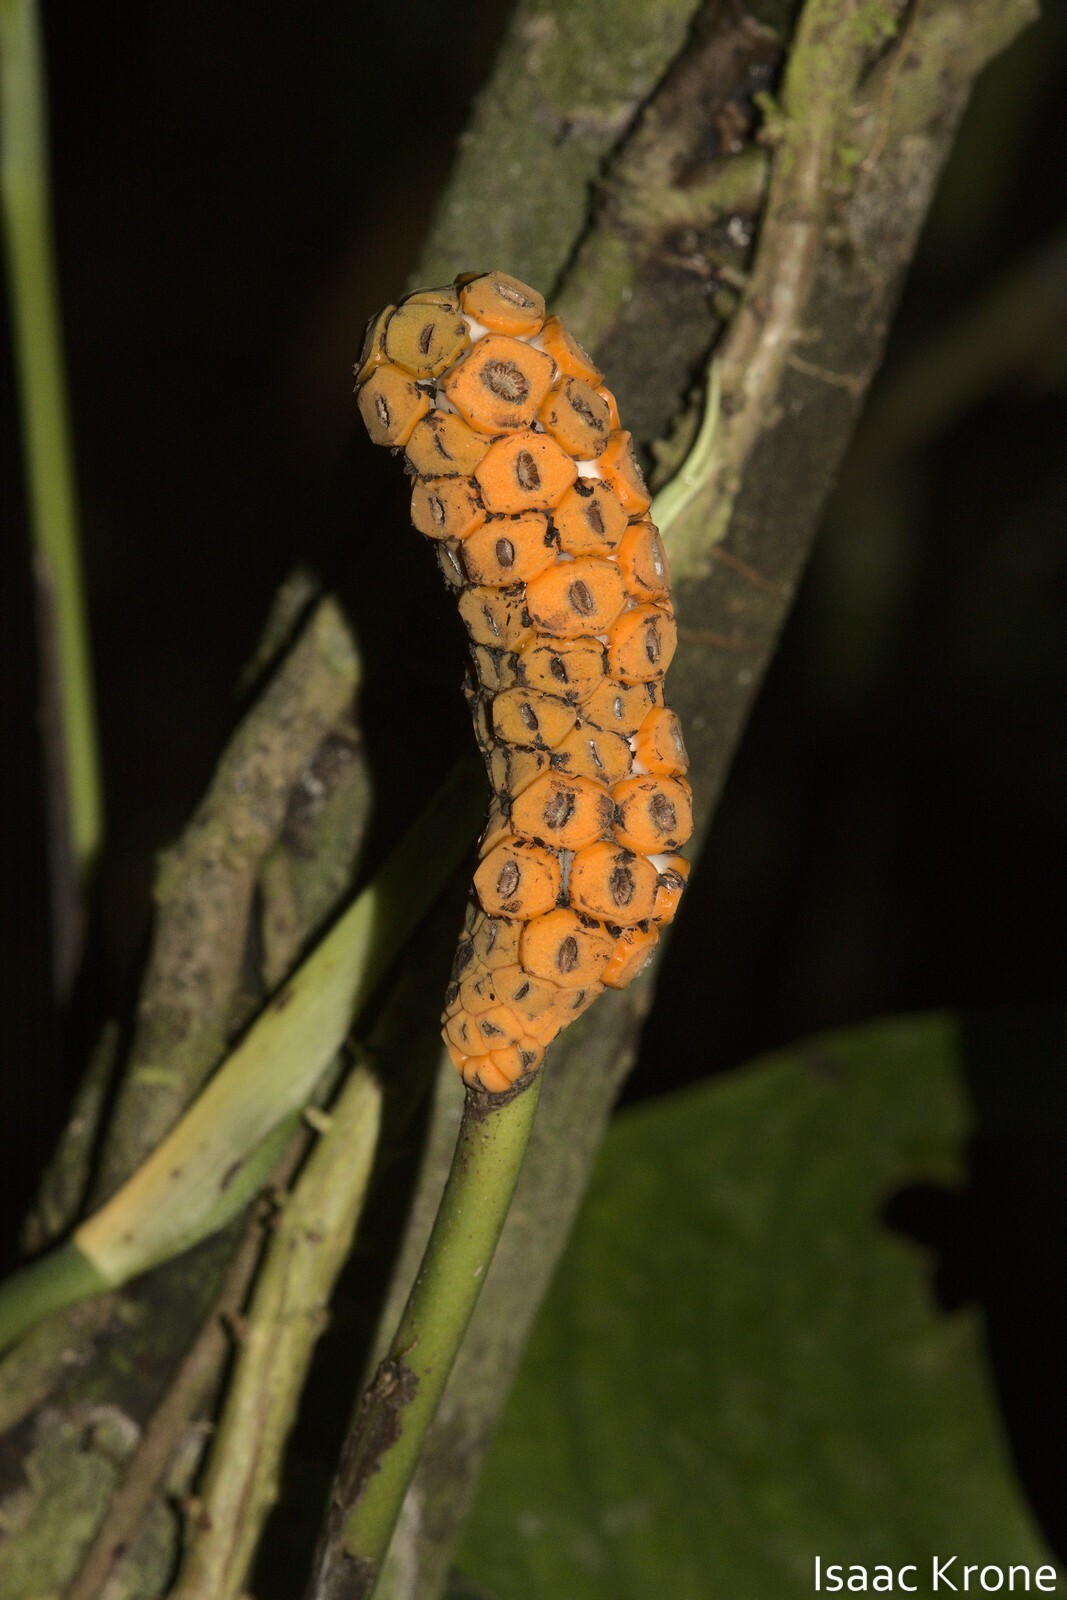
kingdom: Plantae
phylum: Tracheophyta
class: Liliopsida
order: Alismatales
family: Araceae
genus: Monstera
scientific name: Monstera obliqua
